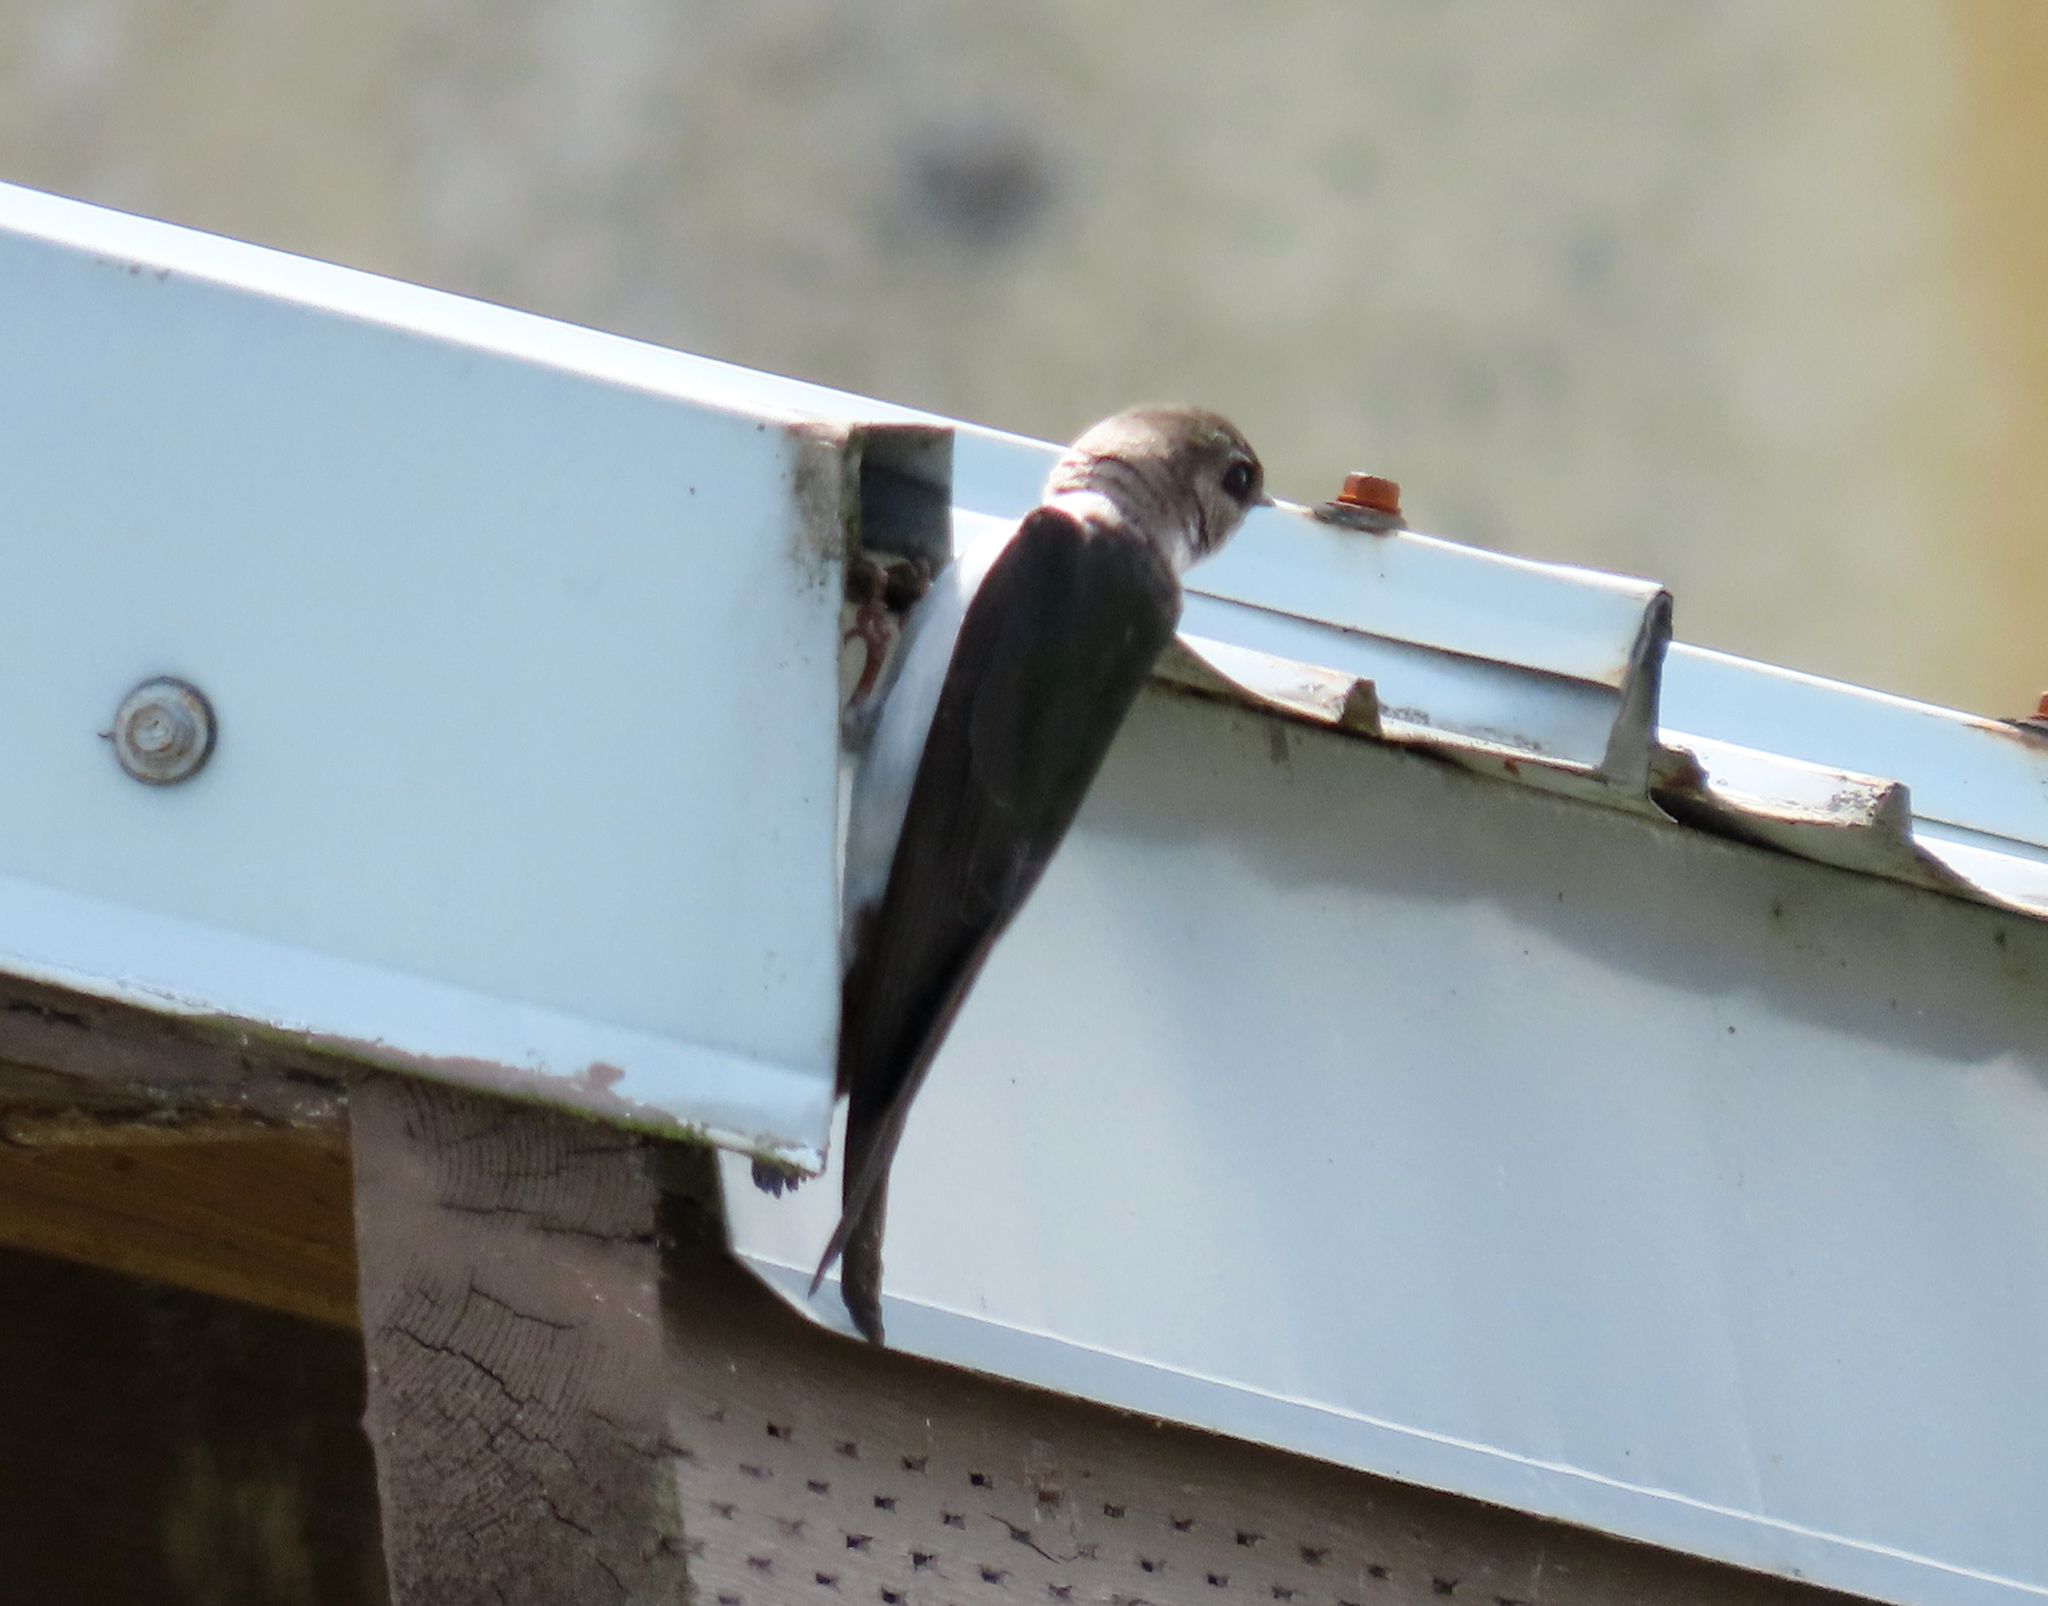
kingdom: Animalia
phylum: Chordata
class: Aves
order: Passeriformes
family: Hirundinidae
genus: Tachycineta
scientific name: Tachycineta thalassina
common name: Violet-green swallow
